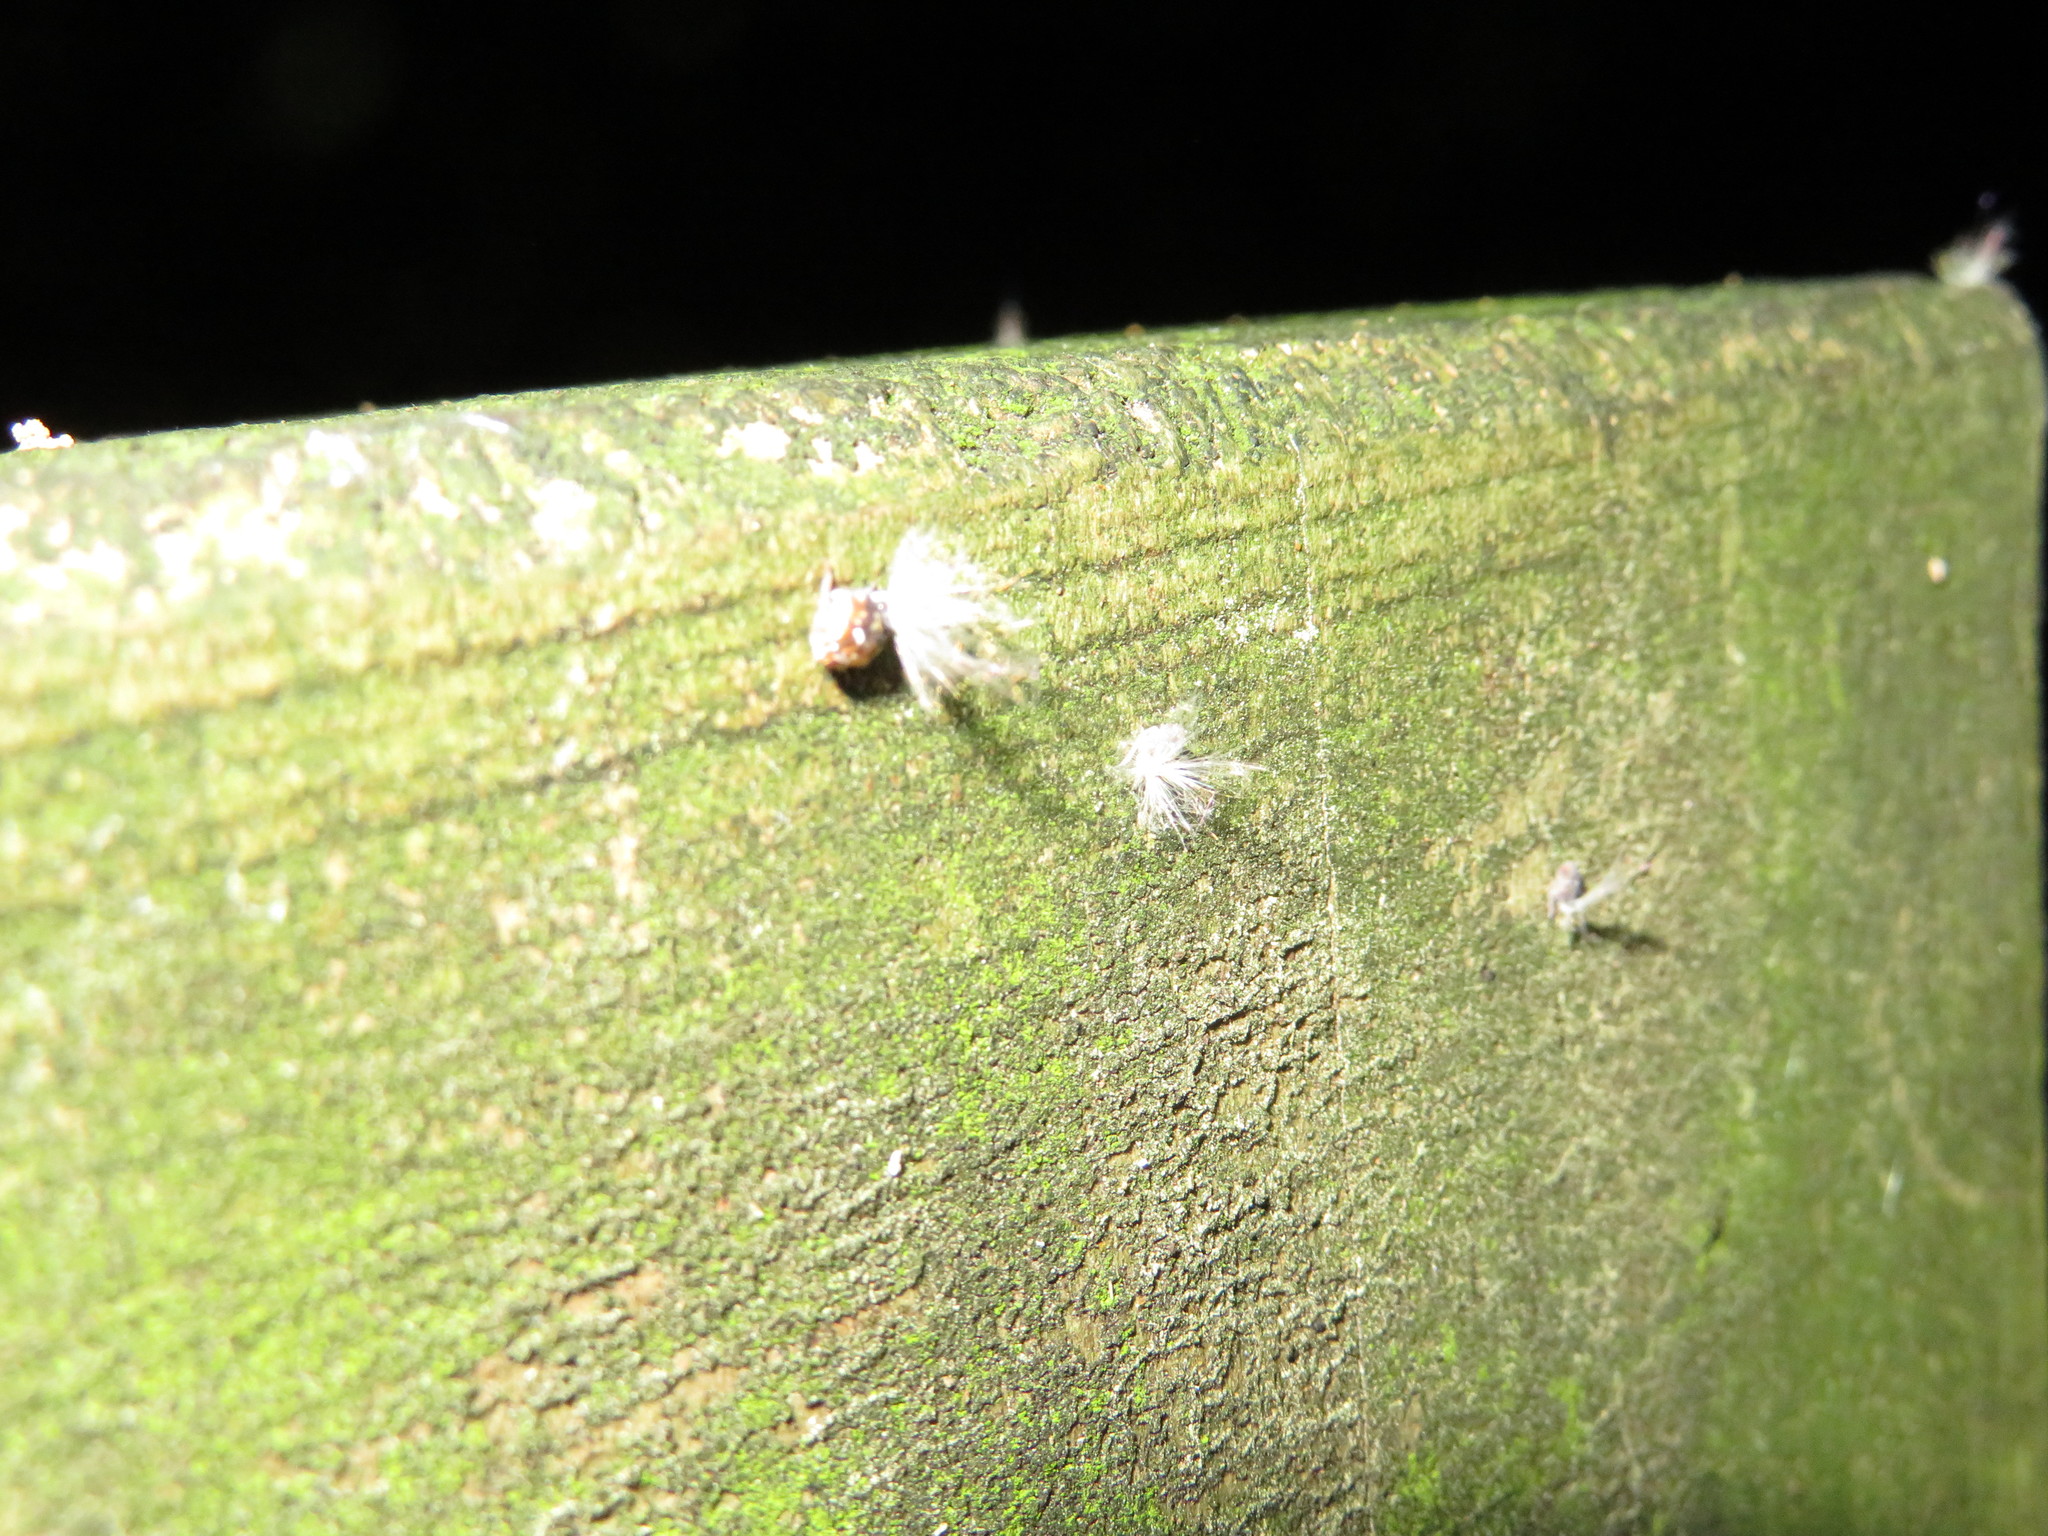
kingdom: Animalia
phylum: Arthropoda
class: Insecta
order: Hemiptera
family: Ricaniidae
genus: Scolypopa
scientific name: Scolypopa australis
